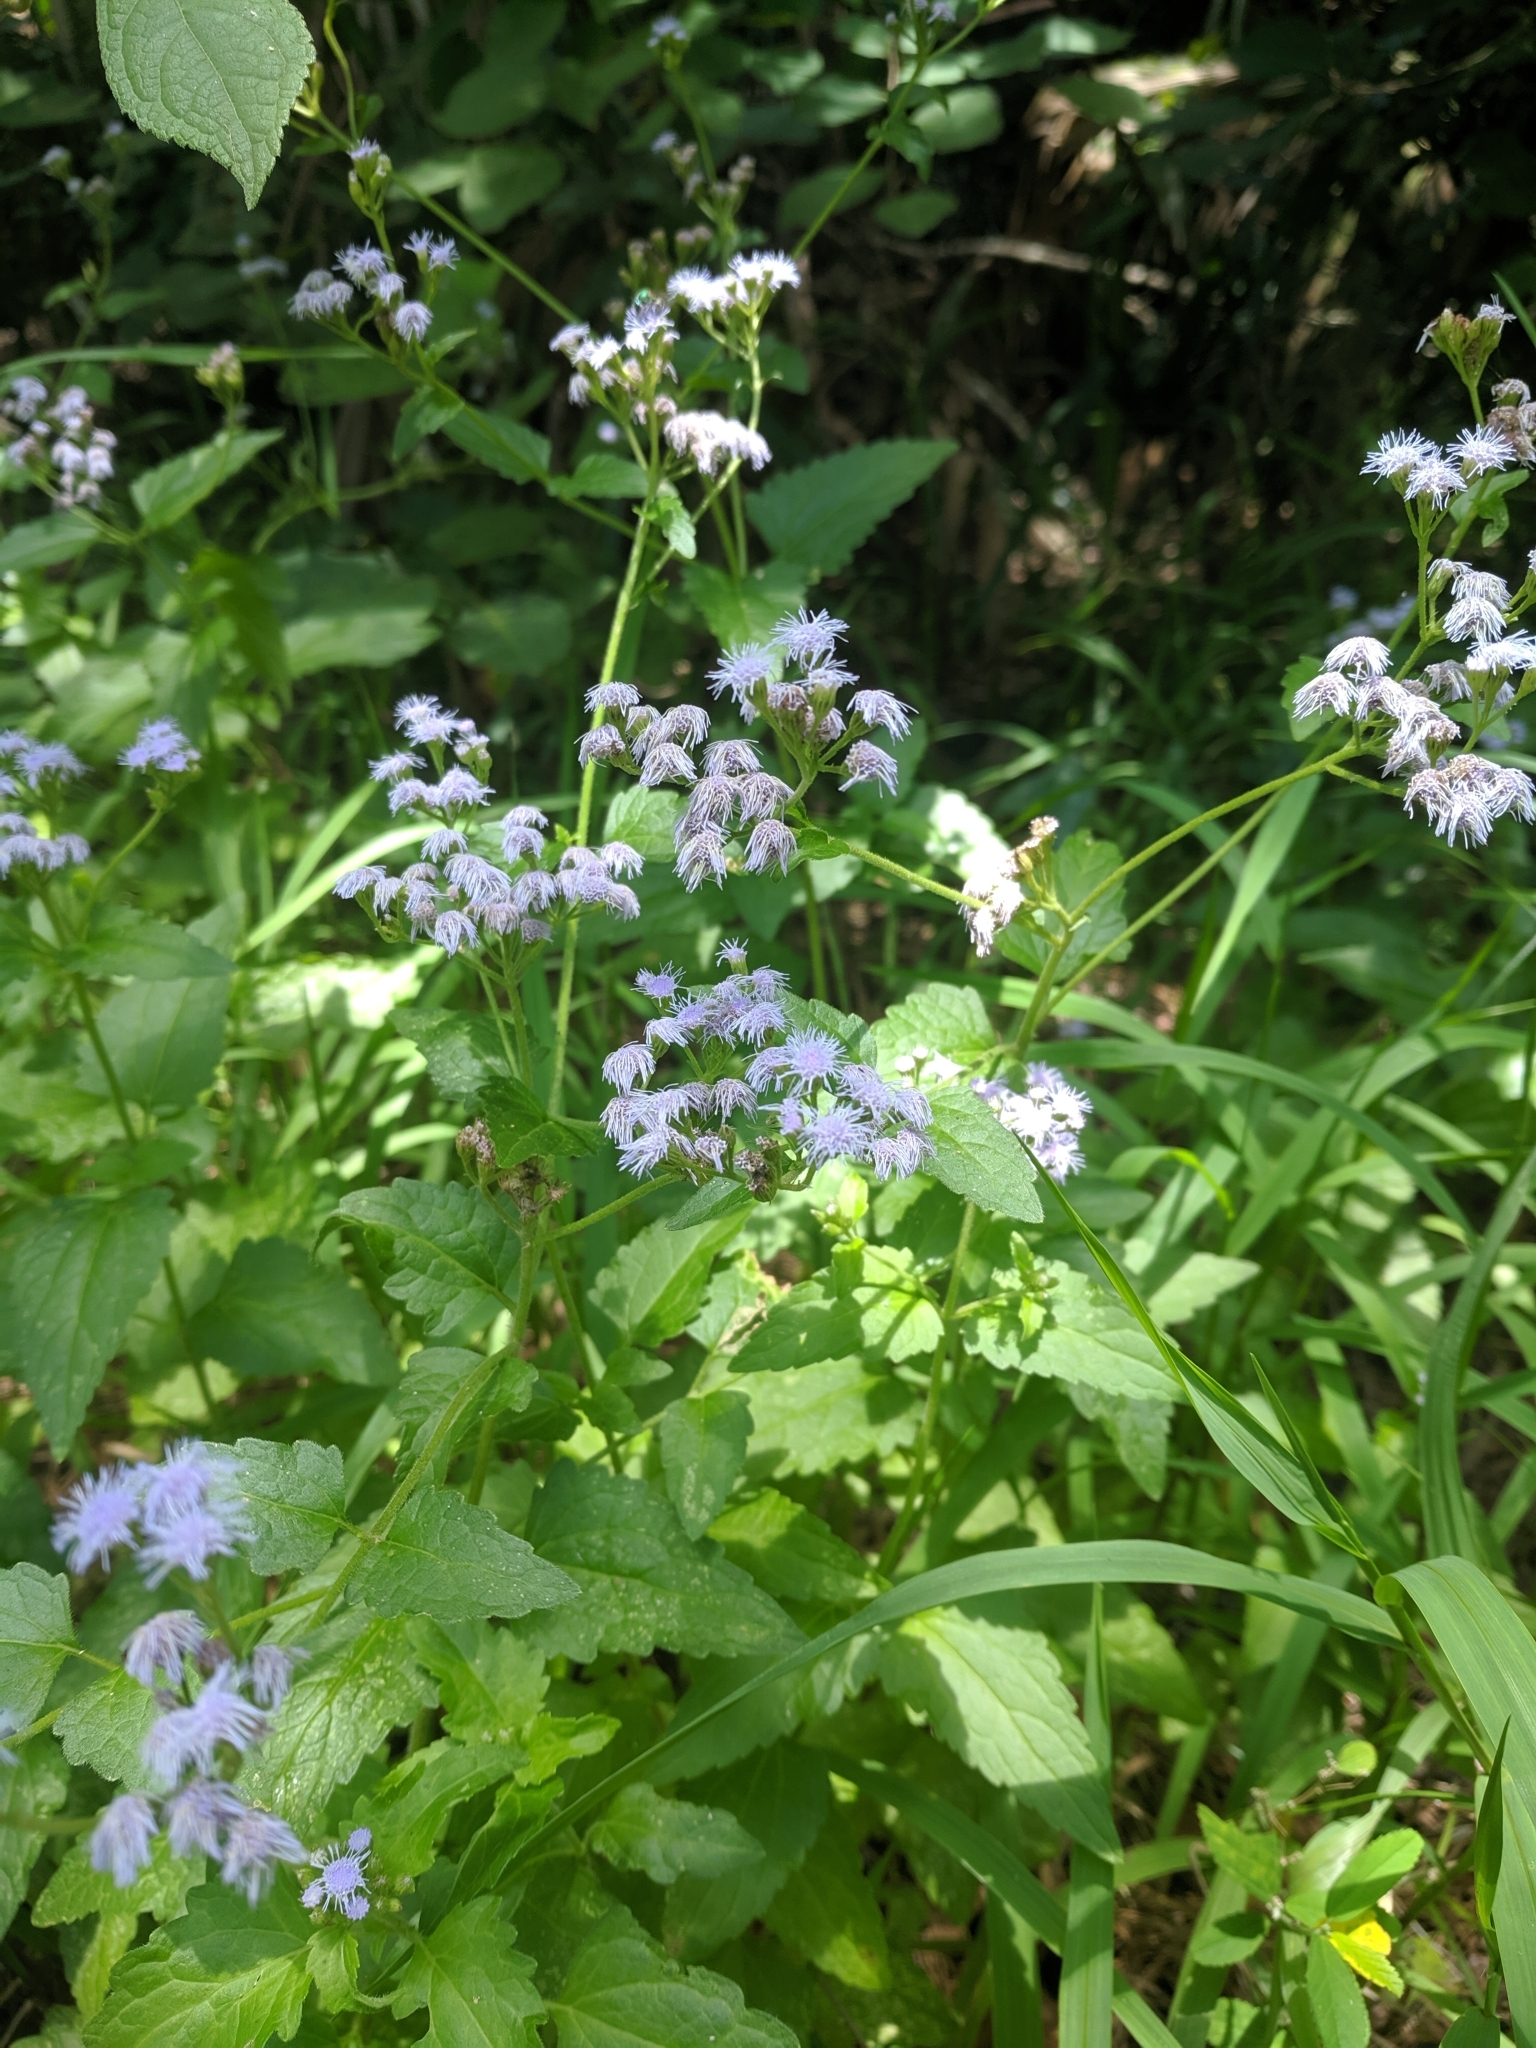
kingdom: Plantae
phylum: Tracheophyta
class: Magnoliopsida
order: Asterales
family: Asteraceae
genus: Conoclinium
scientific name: Conoclinium coelestinum
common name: Blue mistflower
